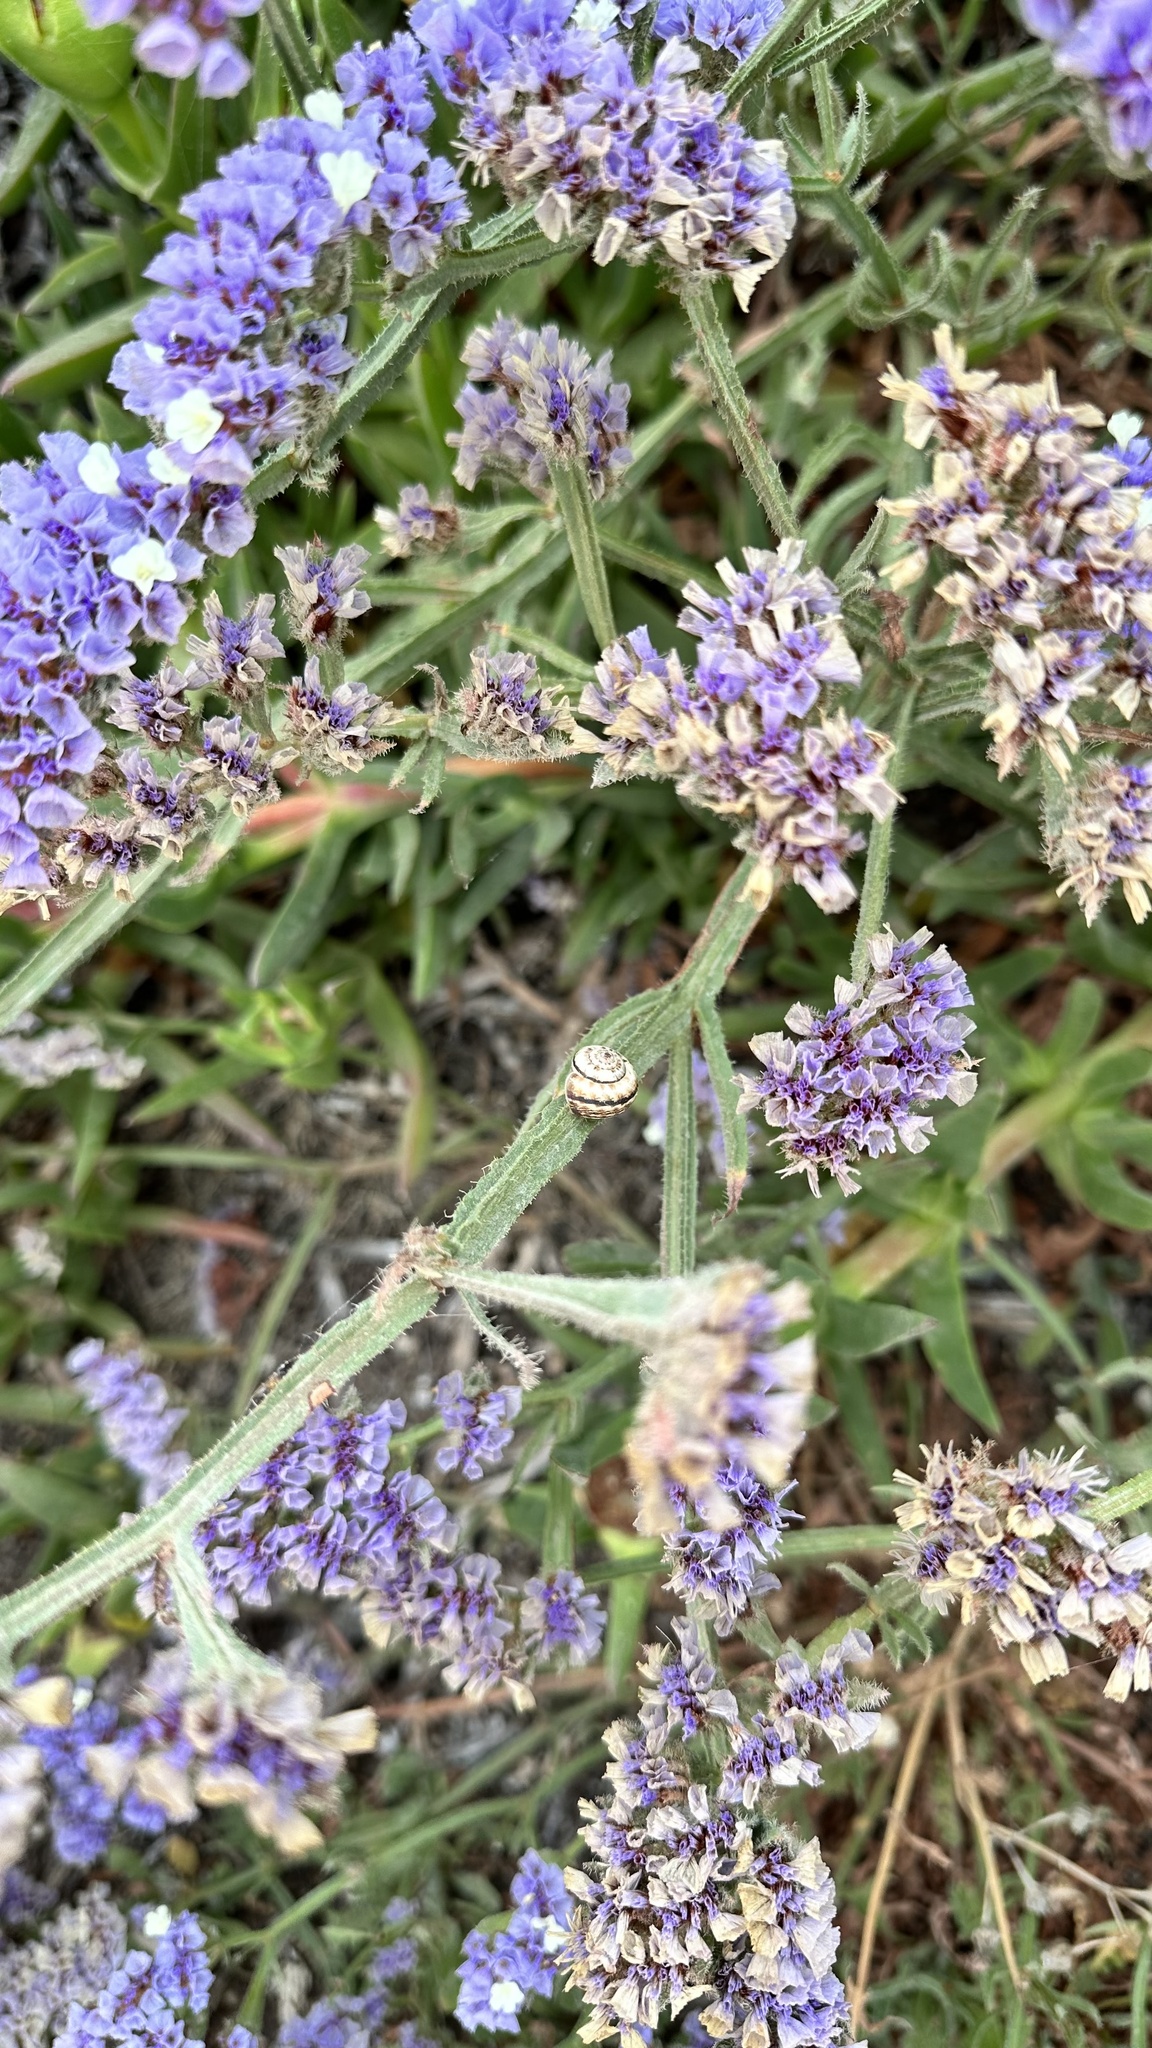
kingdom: Plantae
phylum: Tracheophyta
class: Magnoliopsida
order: Caryophyllales
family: Plumbaginaceae
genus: Limonium
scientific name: Limonium sinuatum
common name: Statice
